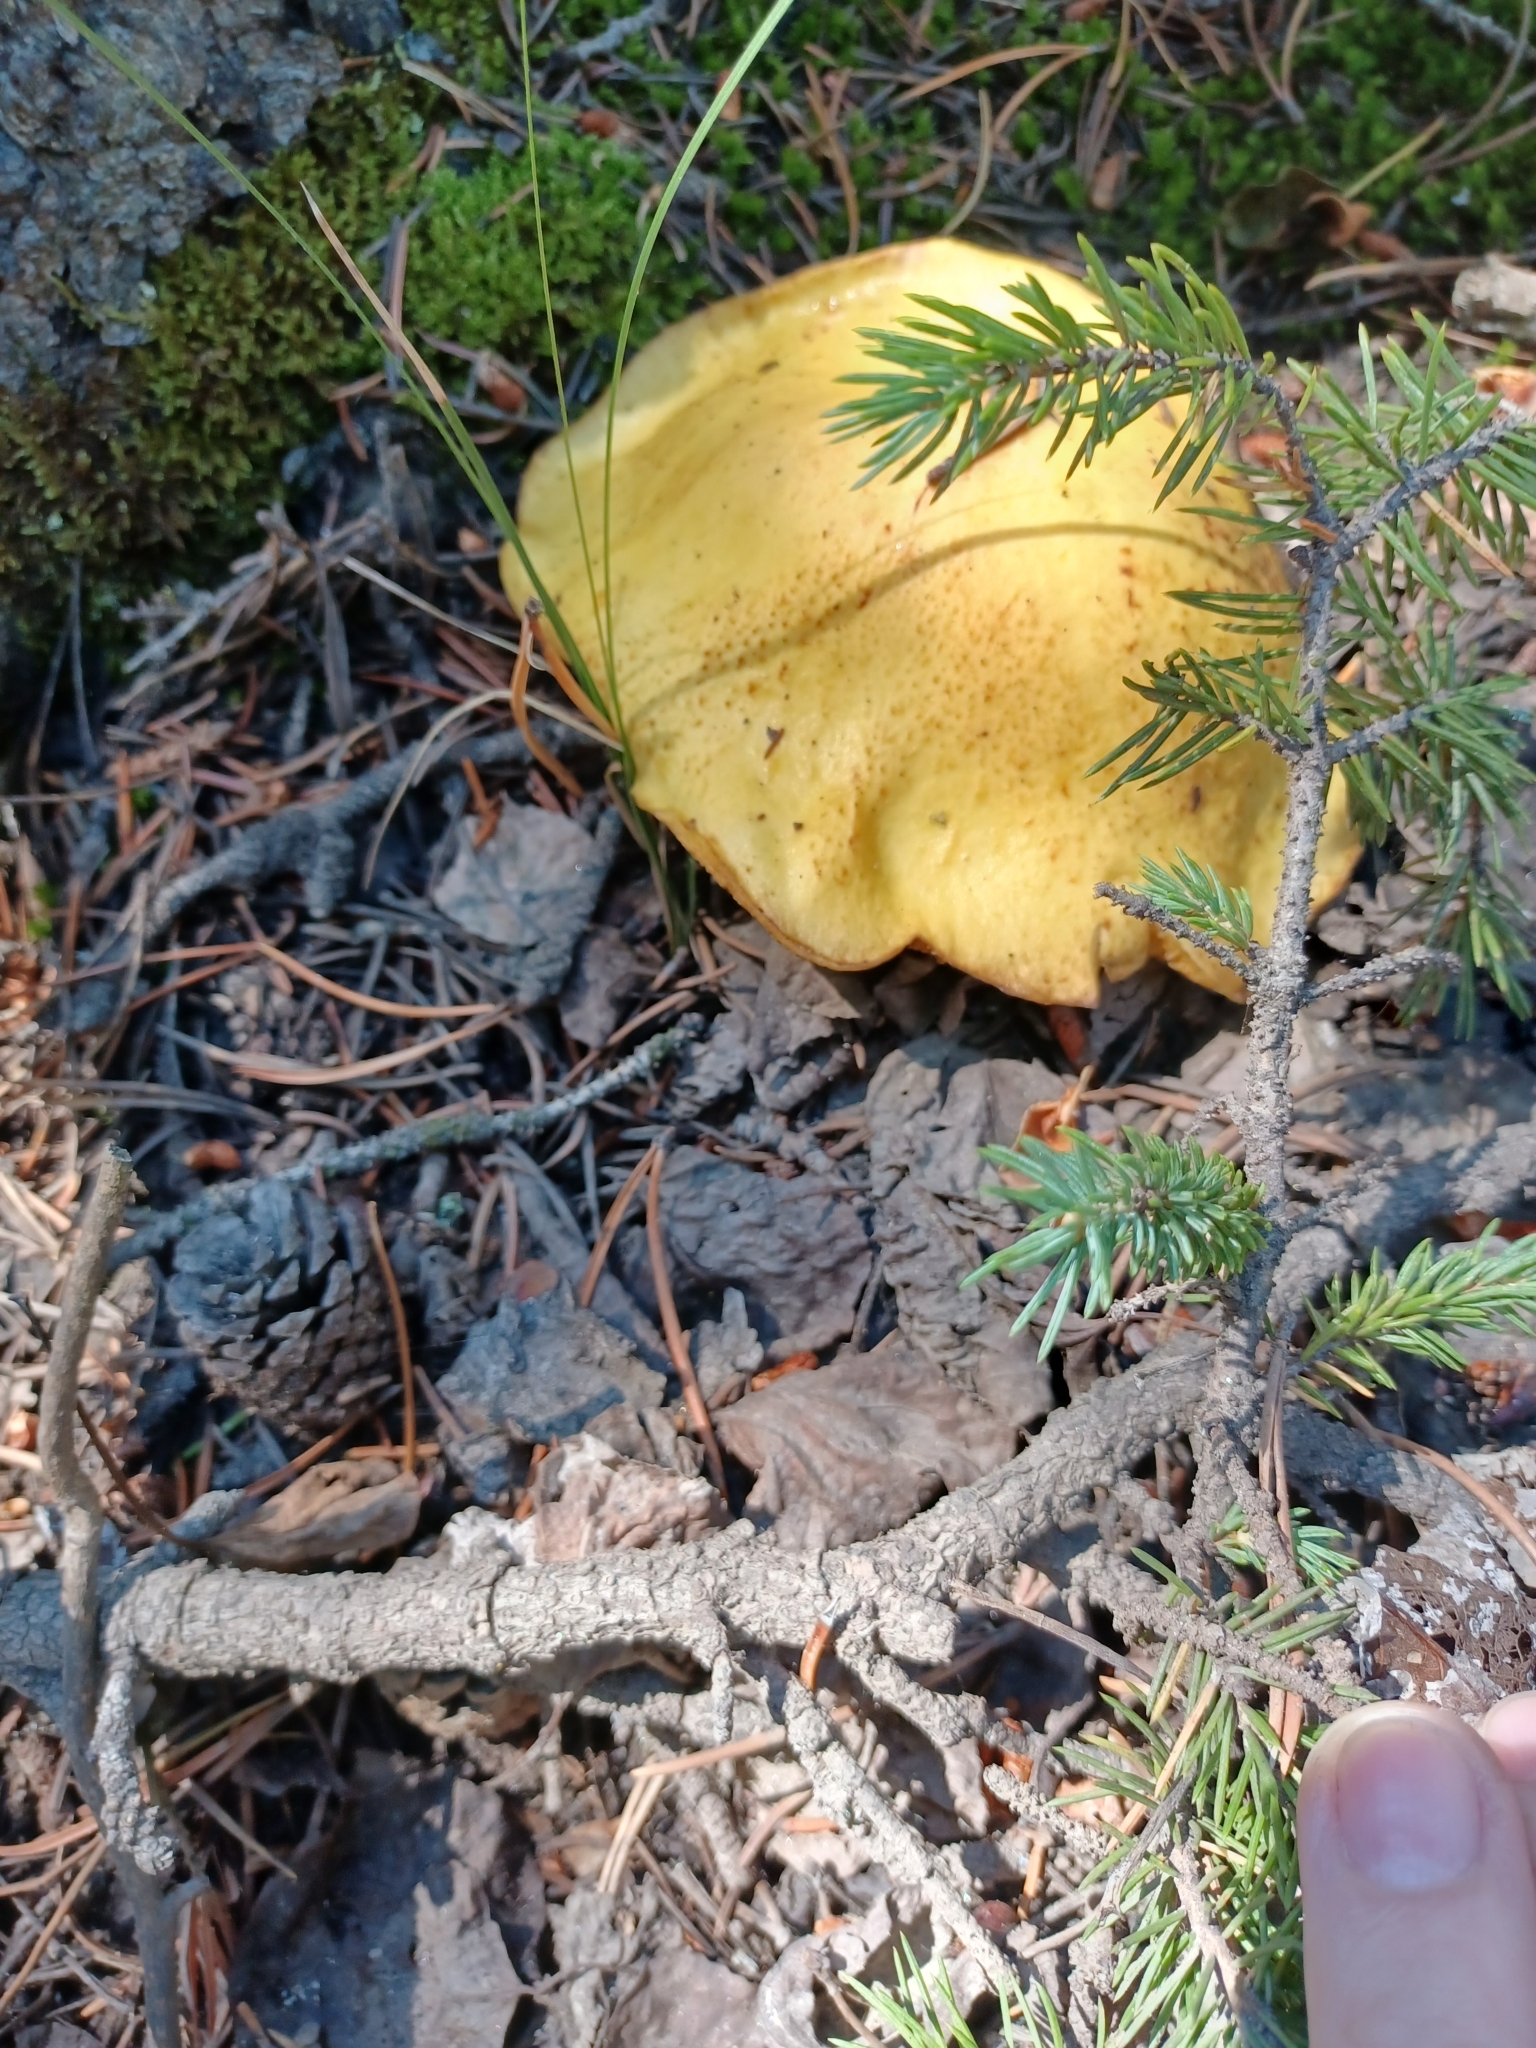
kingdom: Fungi
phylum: Basidiomycota
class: Agaricomycetes
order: Boletales
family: Suillaceae
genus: Suillus
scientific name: Suillus tomentosus
